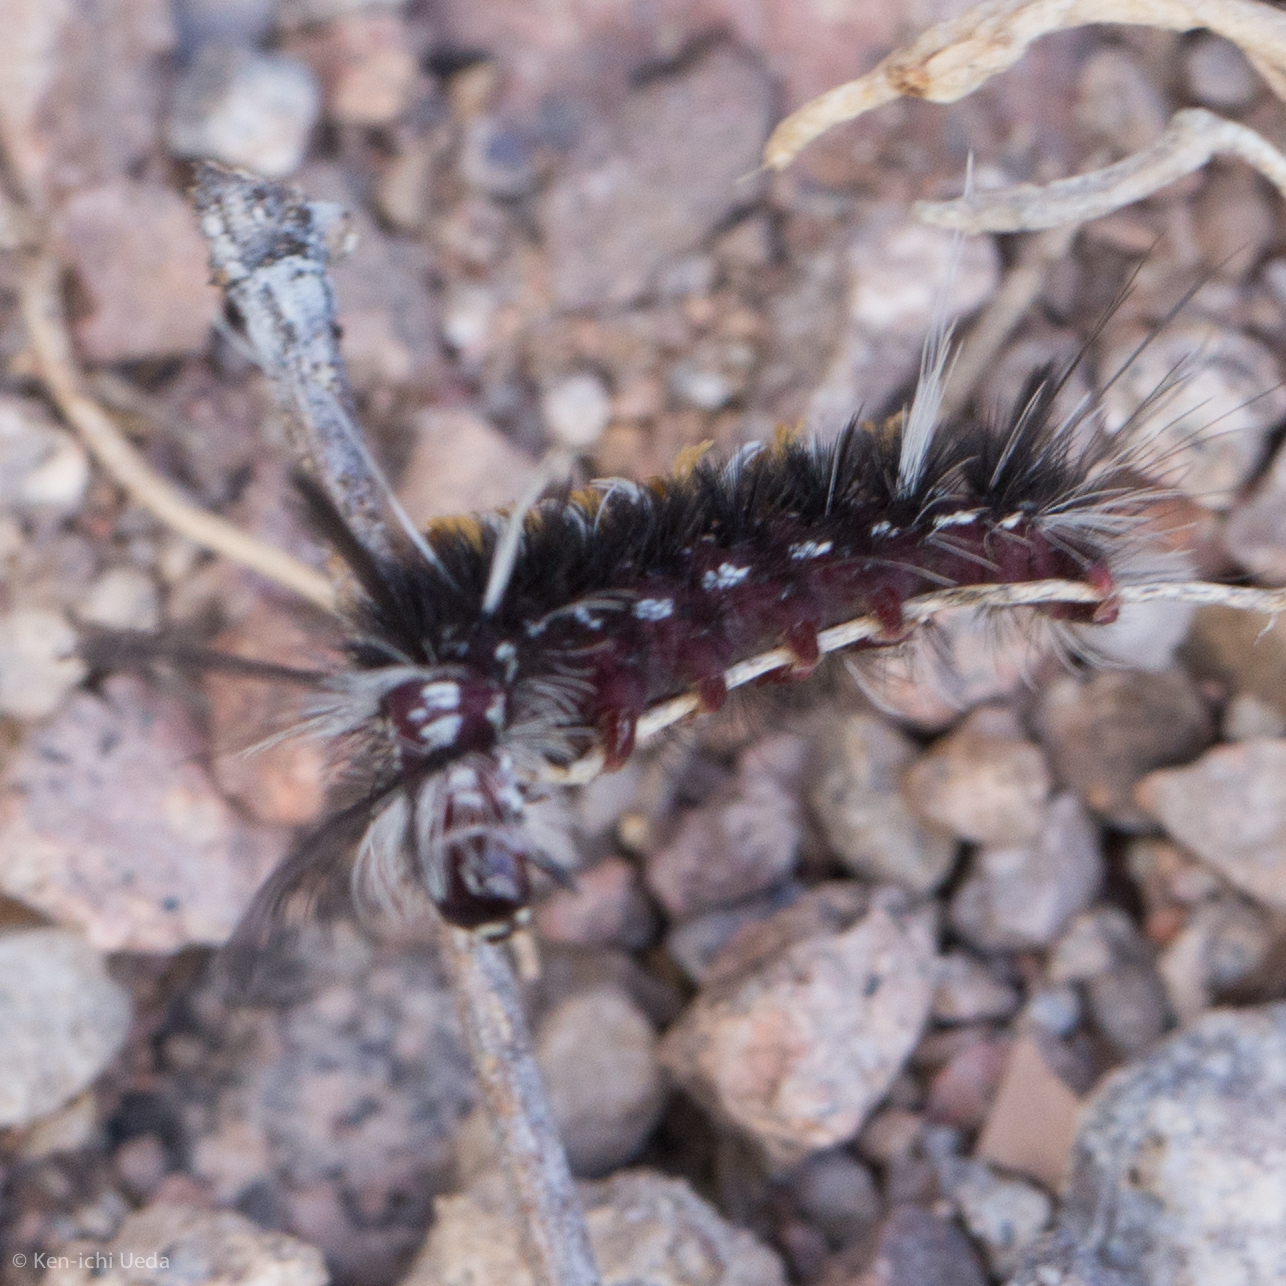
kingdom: Animalia
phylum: Arthropoda
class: Insecta
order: Lepidoptera
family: Erebidae
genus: Euchaetes
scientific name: Euchaetes
